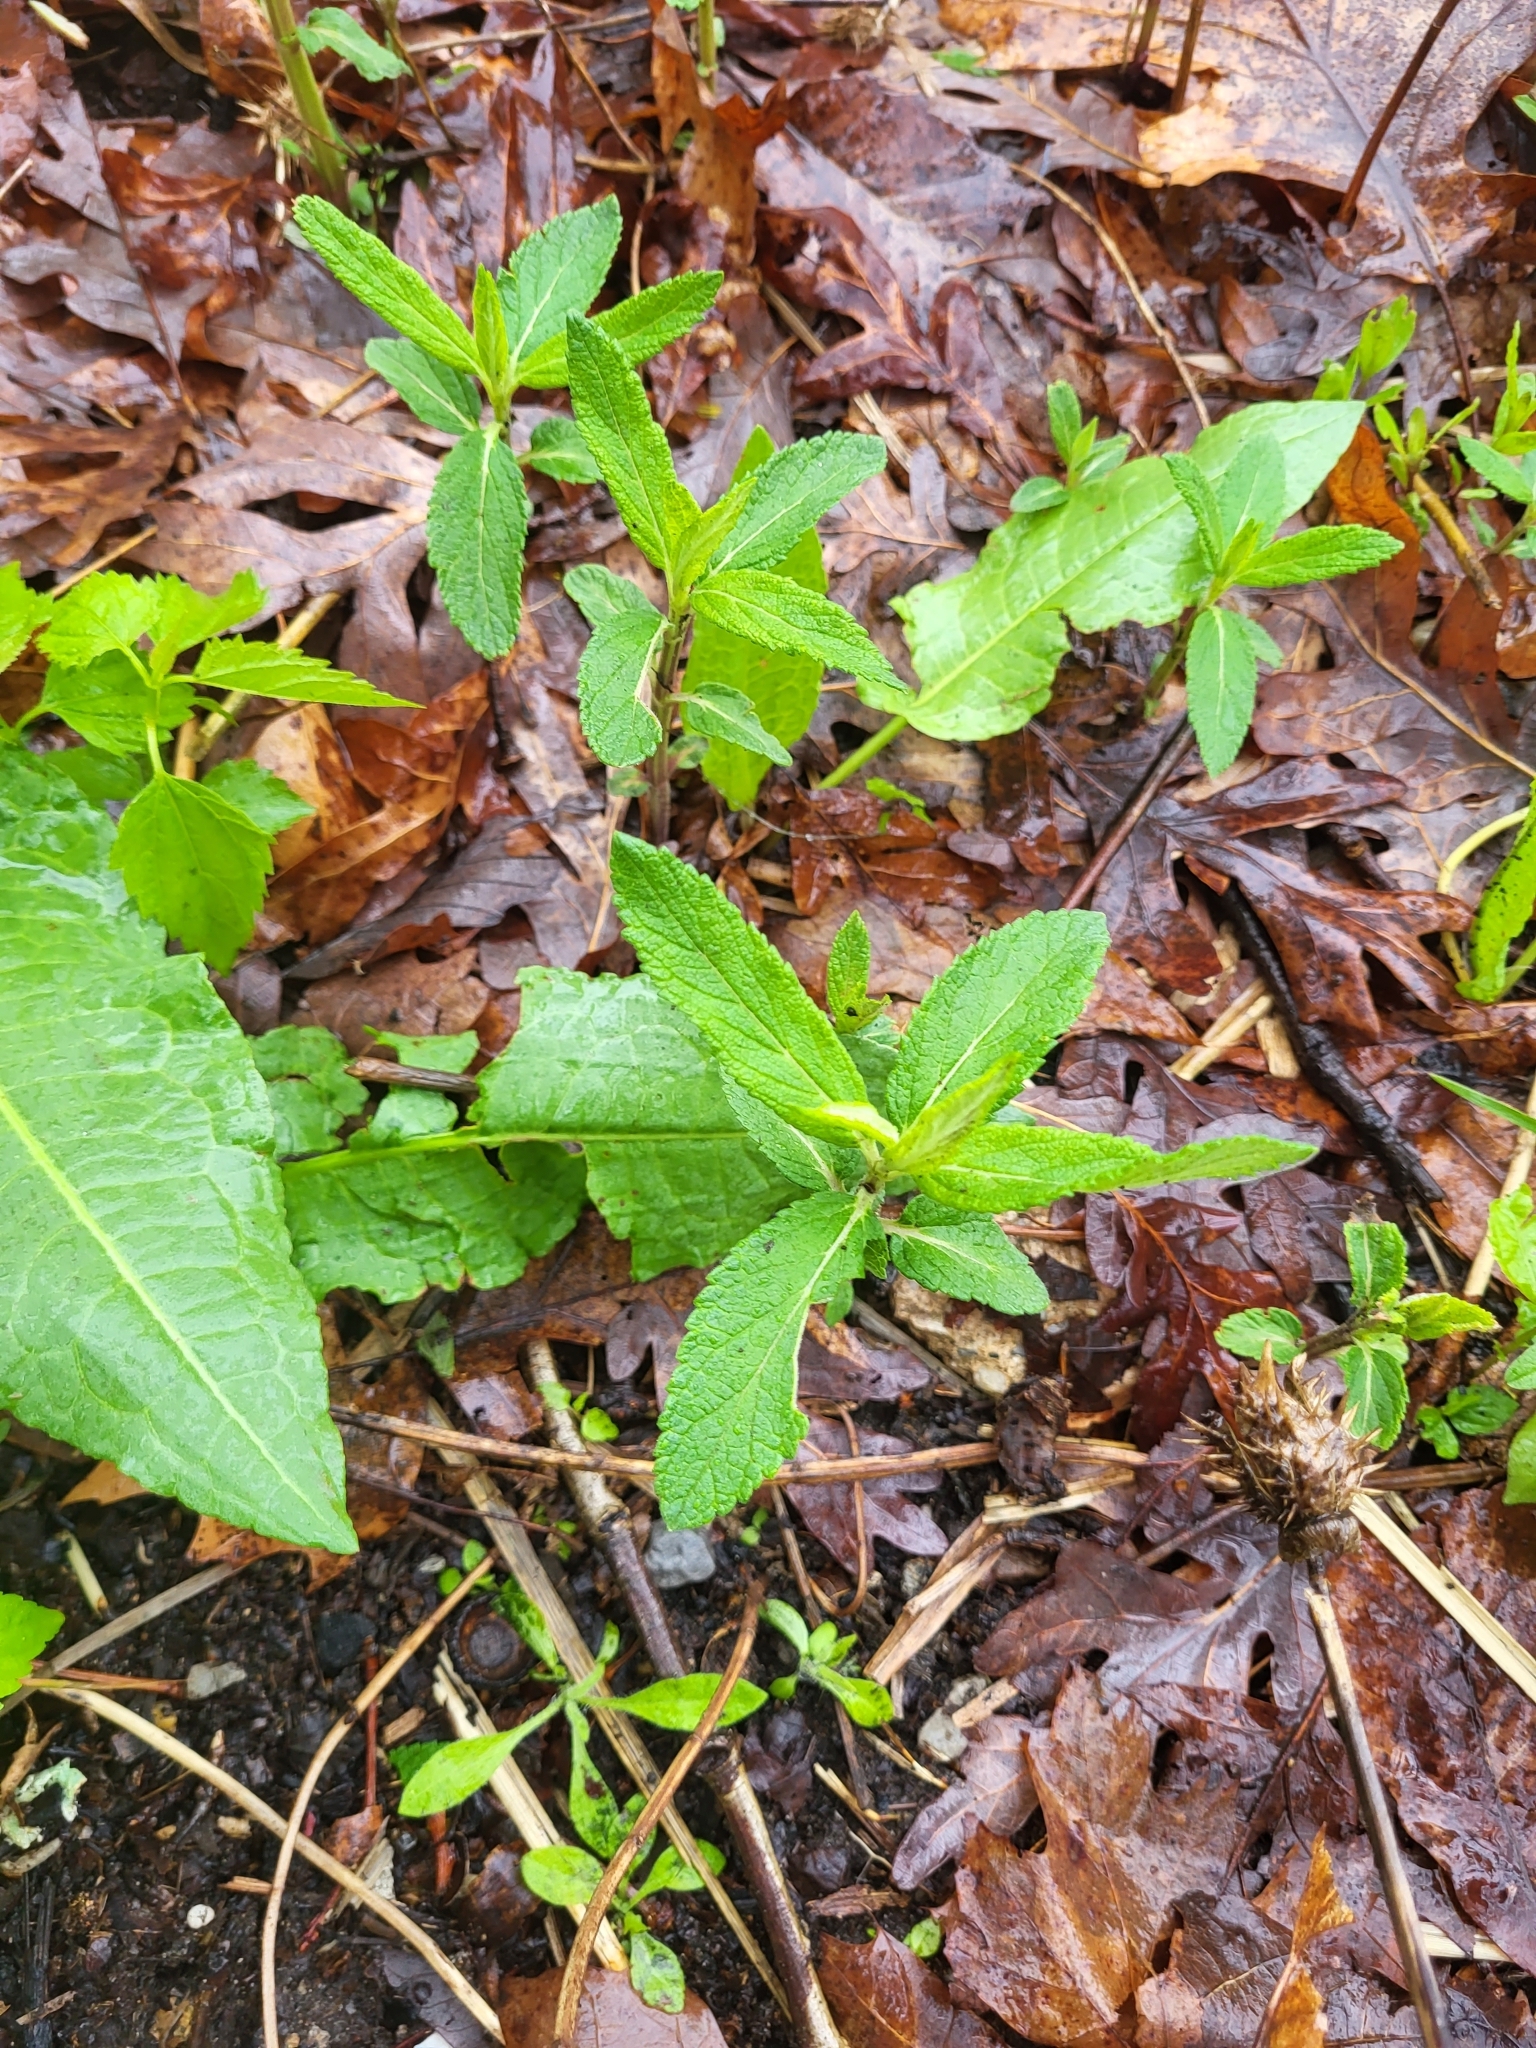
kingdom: Plantae
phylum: Tracheophyta
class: Magnoliopsida
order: Lamiales
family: Lamiaceae
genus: Teucrium
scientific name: Teucrium canadense
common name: American germander
